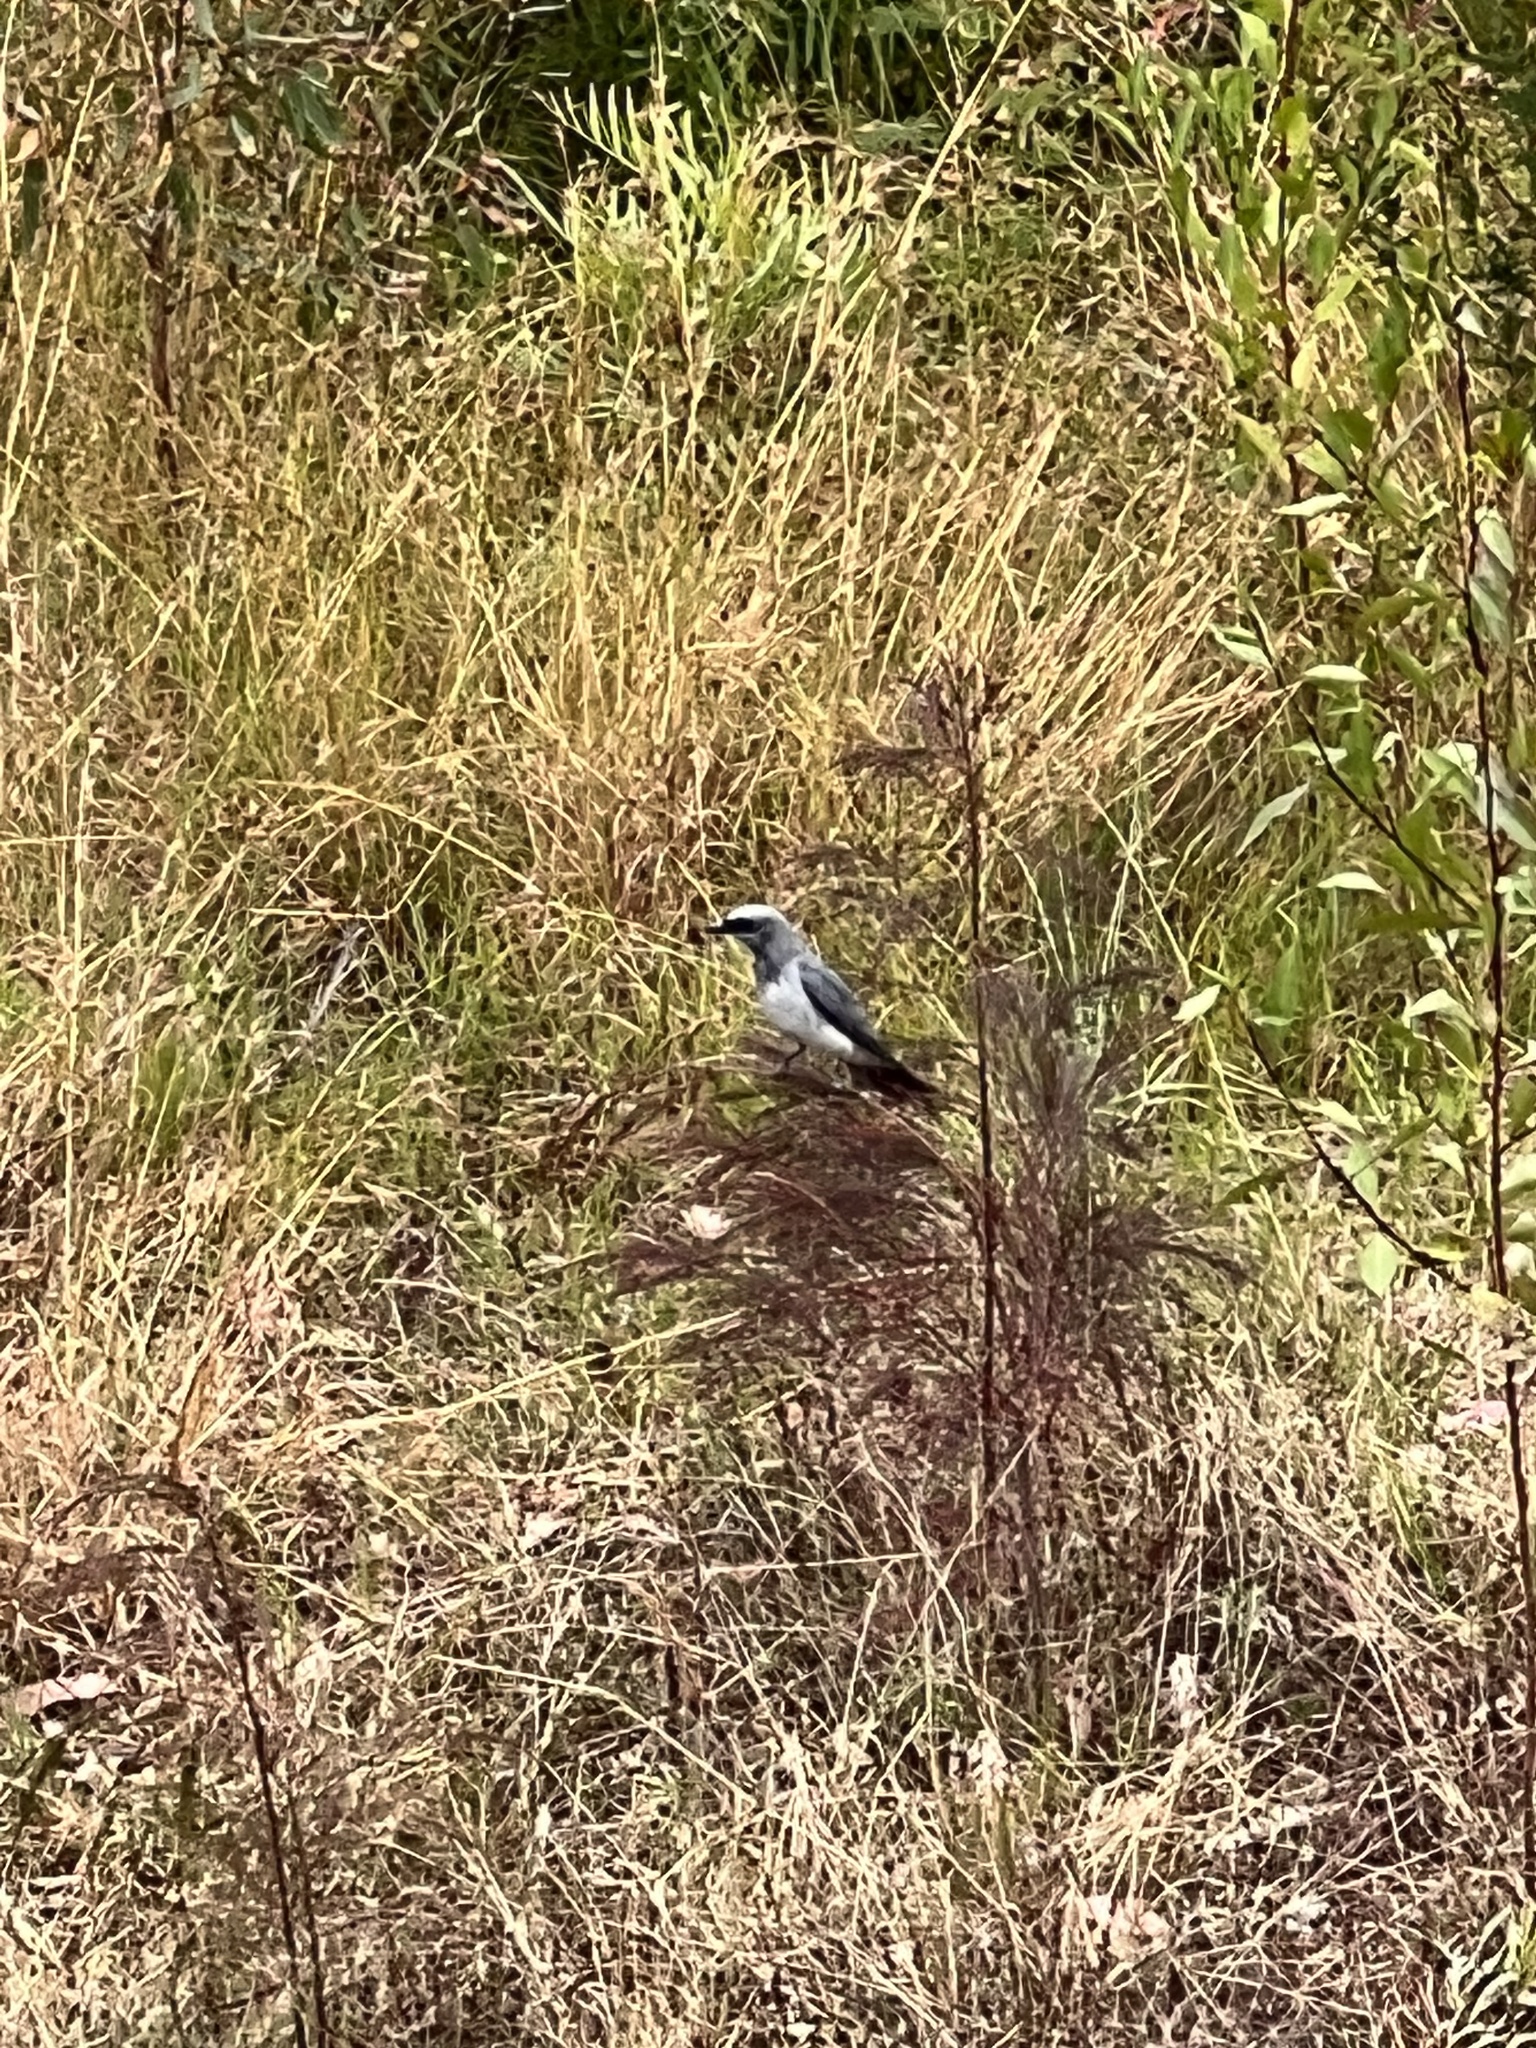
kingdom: Animalia
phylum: Chordata
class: Aves
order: Passeriformes
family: Campephagidae
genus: Coracina
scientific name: Coracina papuensis
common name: White-bellied cuckooshrike
